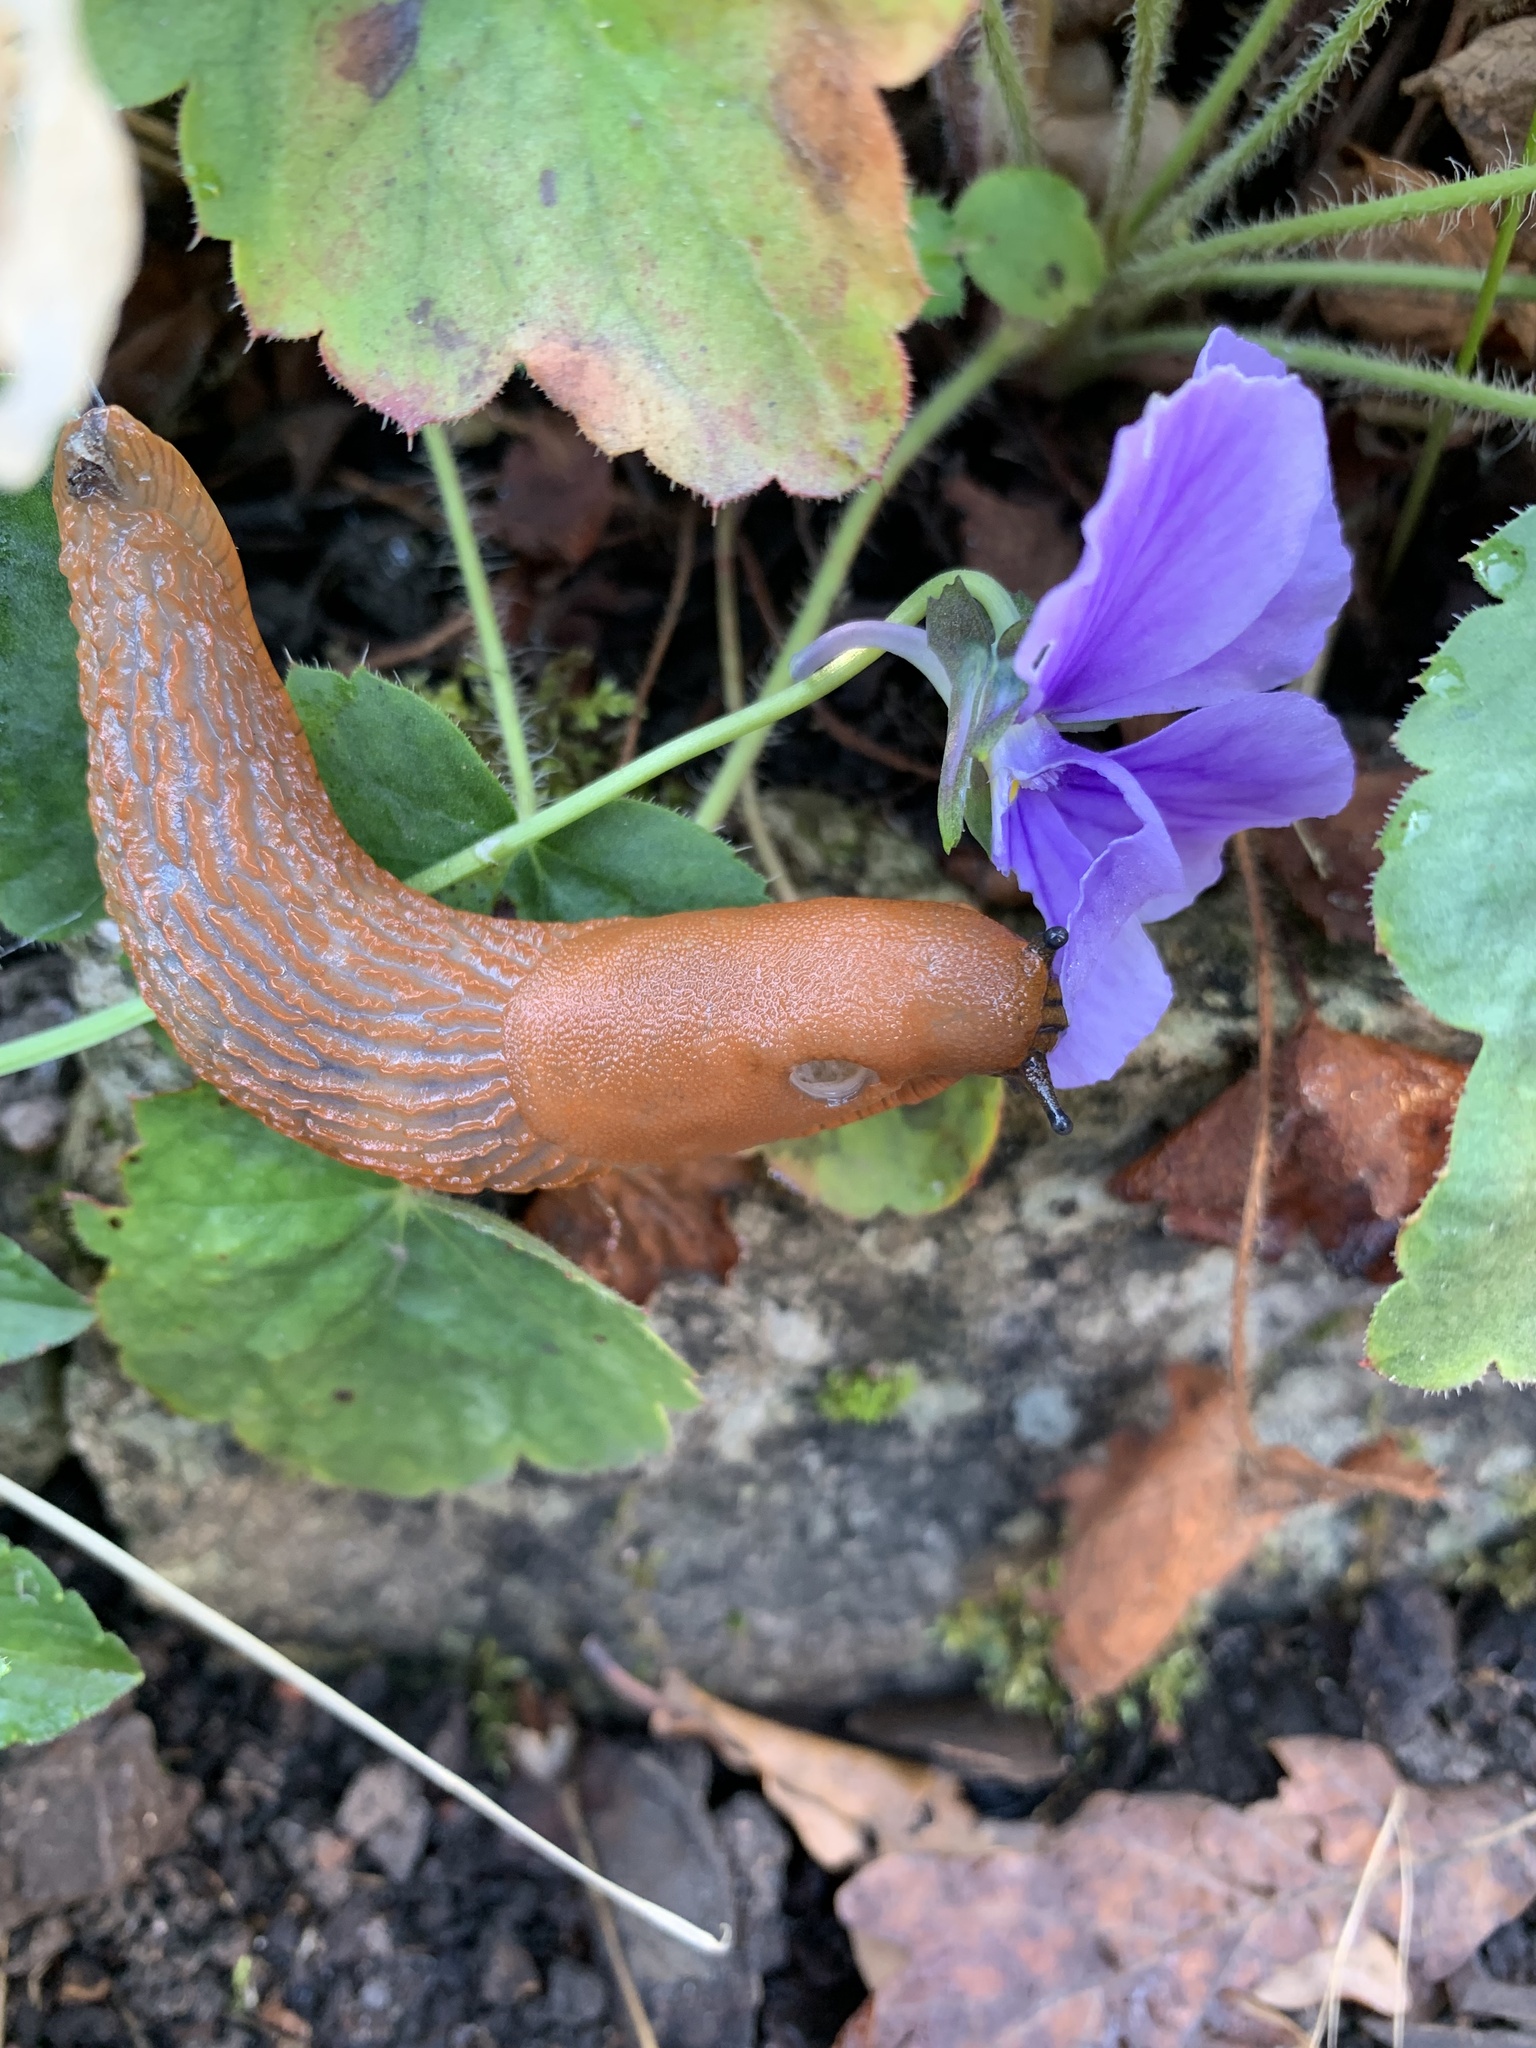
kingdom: Animalia
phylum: Mollusca
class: Gastropoda
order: Stylommatophora
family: Arionidae
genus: Arion
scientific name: Arion vulgaris
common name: Lusitanian slug
